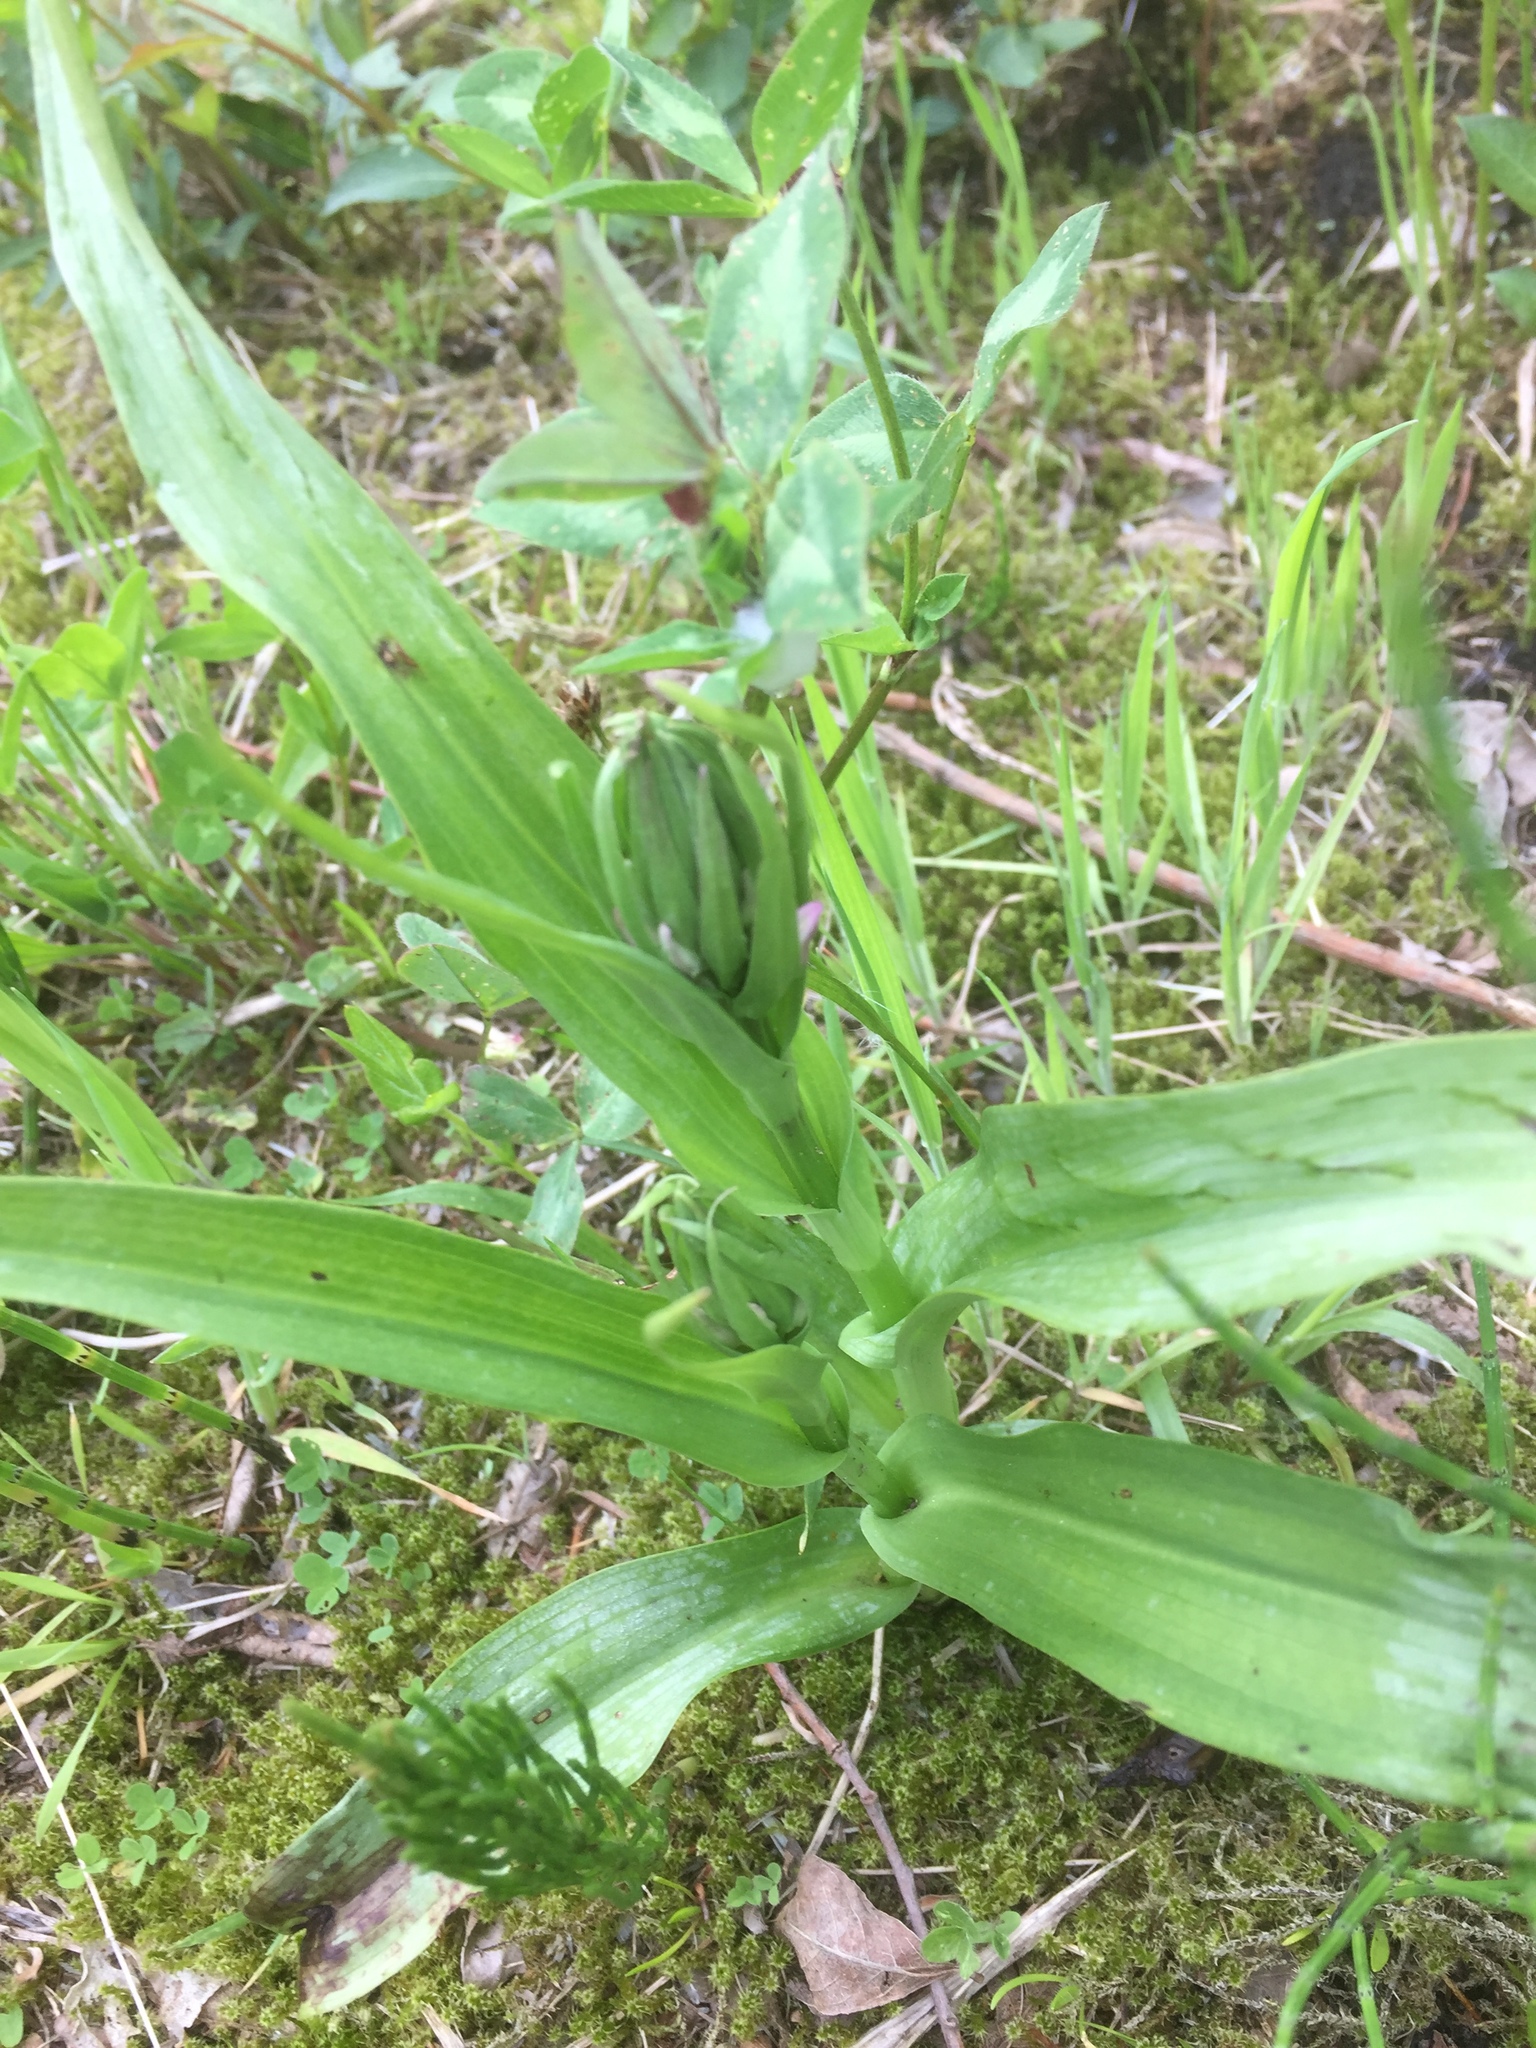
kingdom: Plantae
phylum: Tracheophyta
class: Liliopsida
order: Asparagales
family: Orchidaceae
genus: Dactylorhiza
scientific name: Dactylorhiza incarnata
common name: Early marsh-orchid
